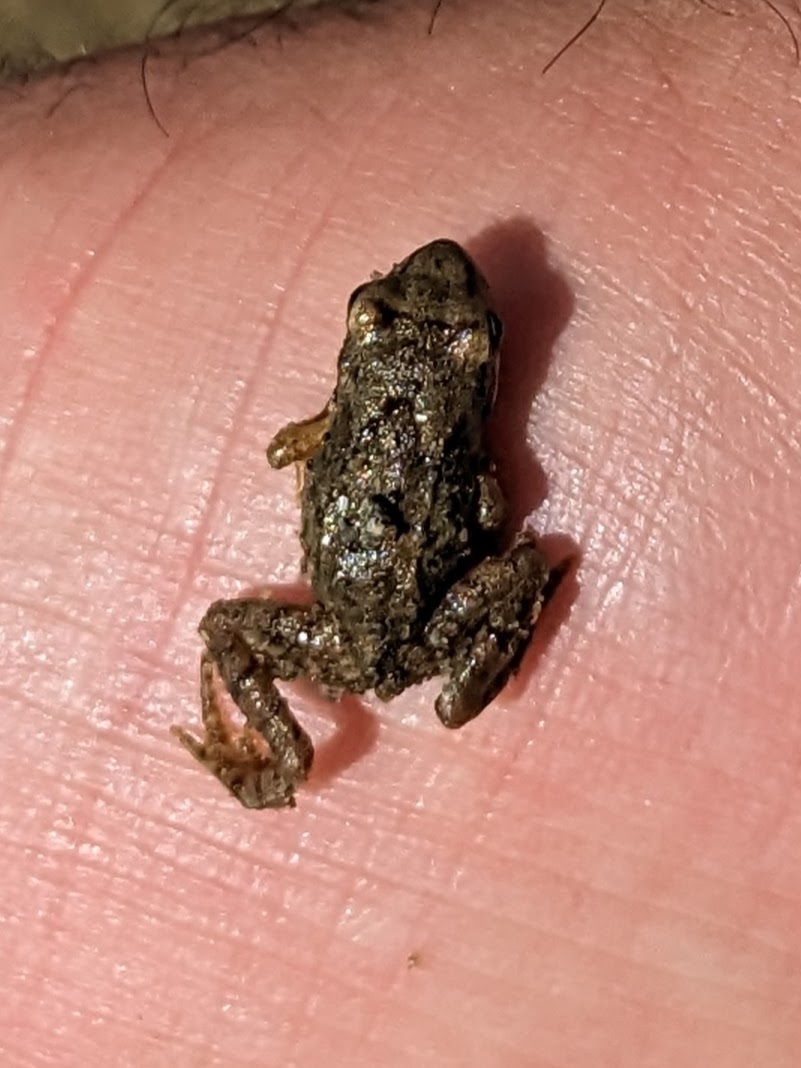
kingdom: Animalia
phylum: Chordata
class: Amphibia
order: Anura
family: Ranidae
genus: Rana
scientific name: Rana temporaria
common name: Common frog
